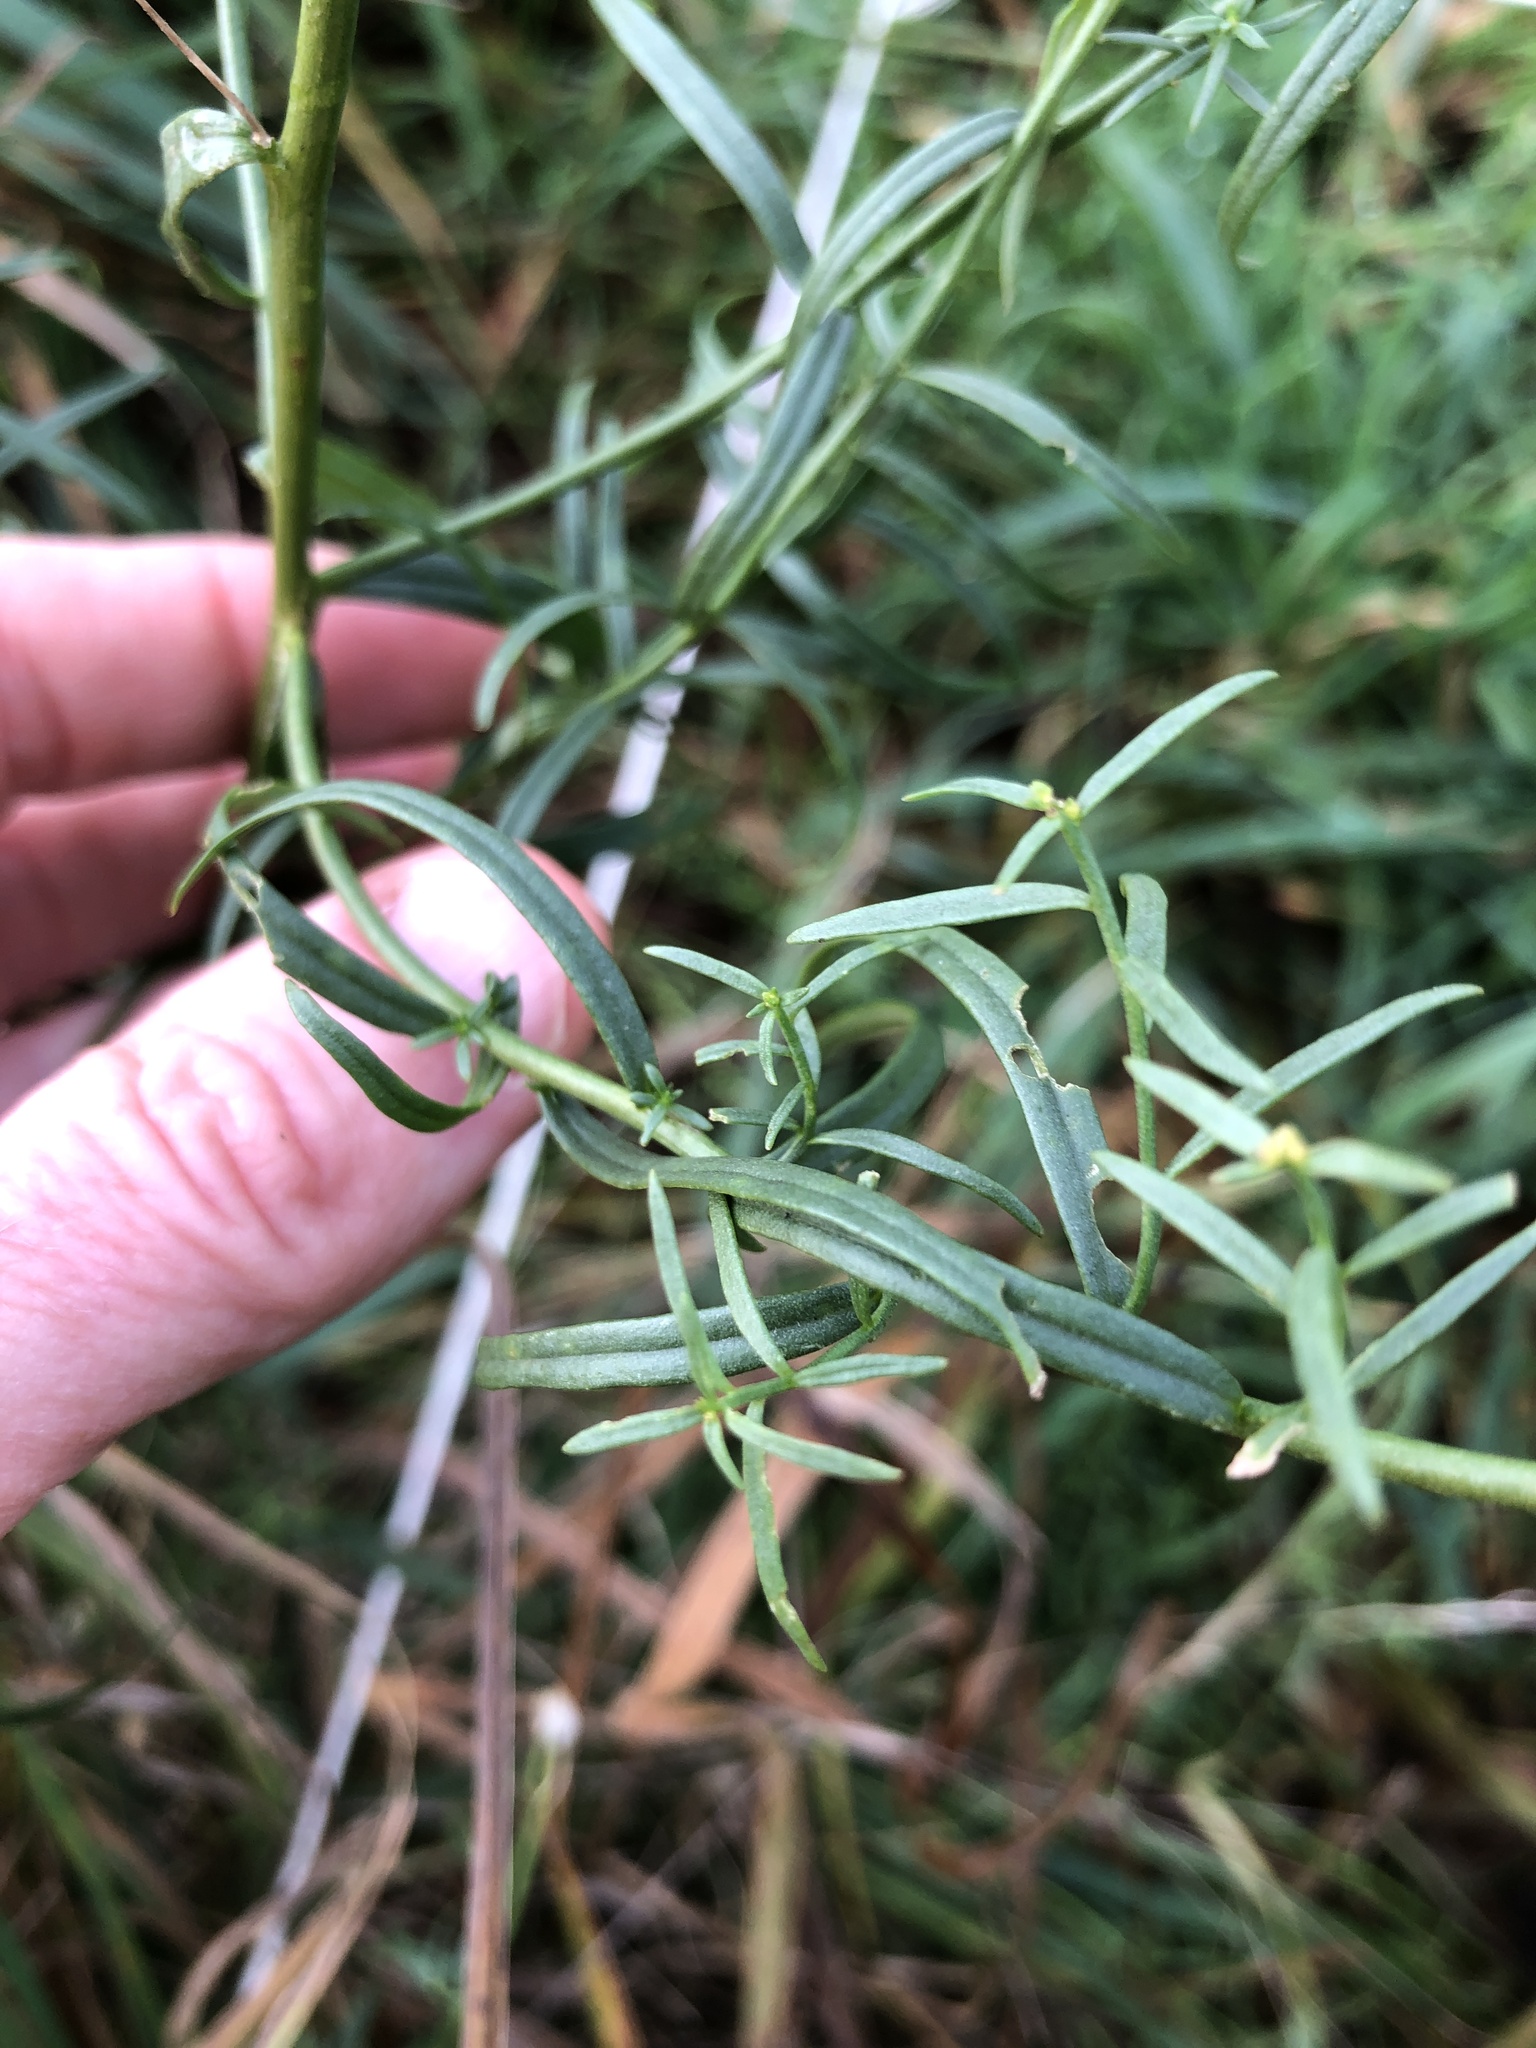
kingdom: Plantae
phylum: Tracheophyta
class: Magnoliopsida
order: Lamiales
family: Plantaginaceae
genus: Linaria
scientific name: Linaria vulgaris
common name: Butter and eggs
